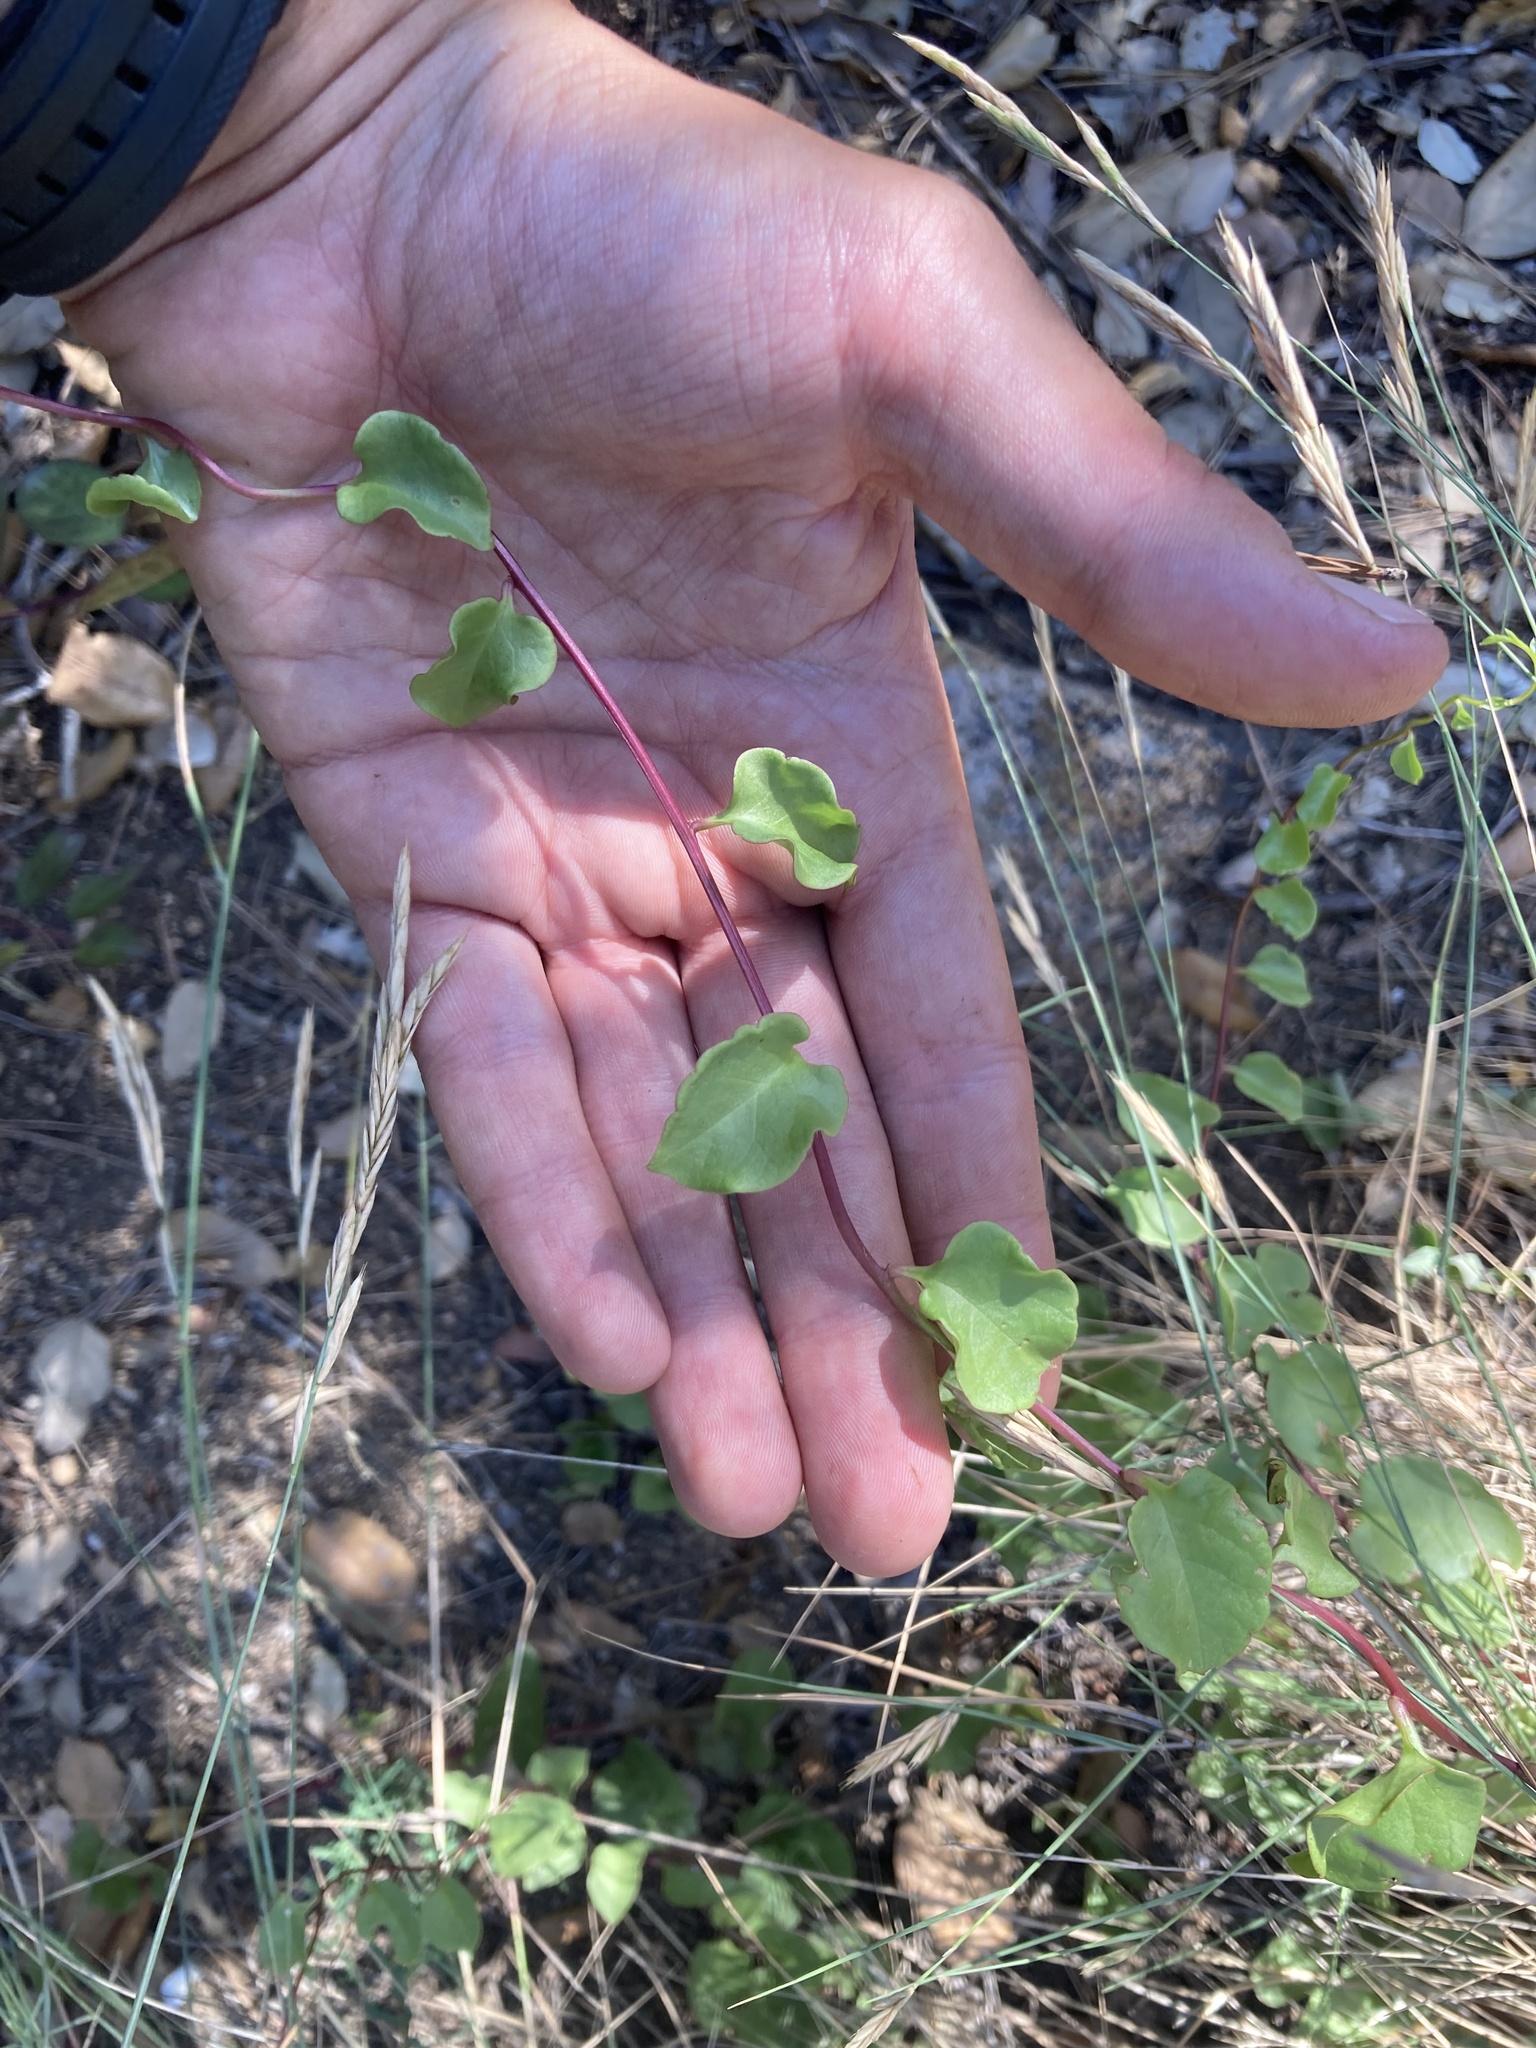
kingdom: Plantae
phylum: Tracheophyta
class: Magnoliopsida
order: Caryophyllales
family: Basellaceae
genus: Anredera
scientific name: Anredera cordifolia
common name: Heartleaf madeiravine
